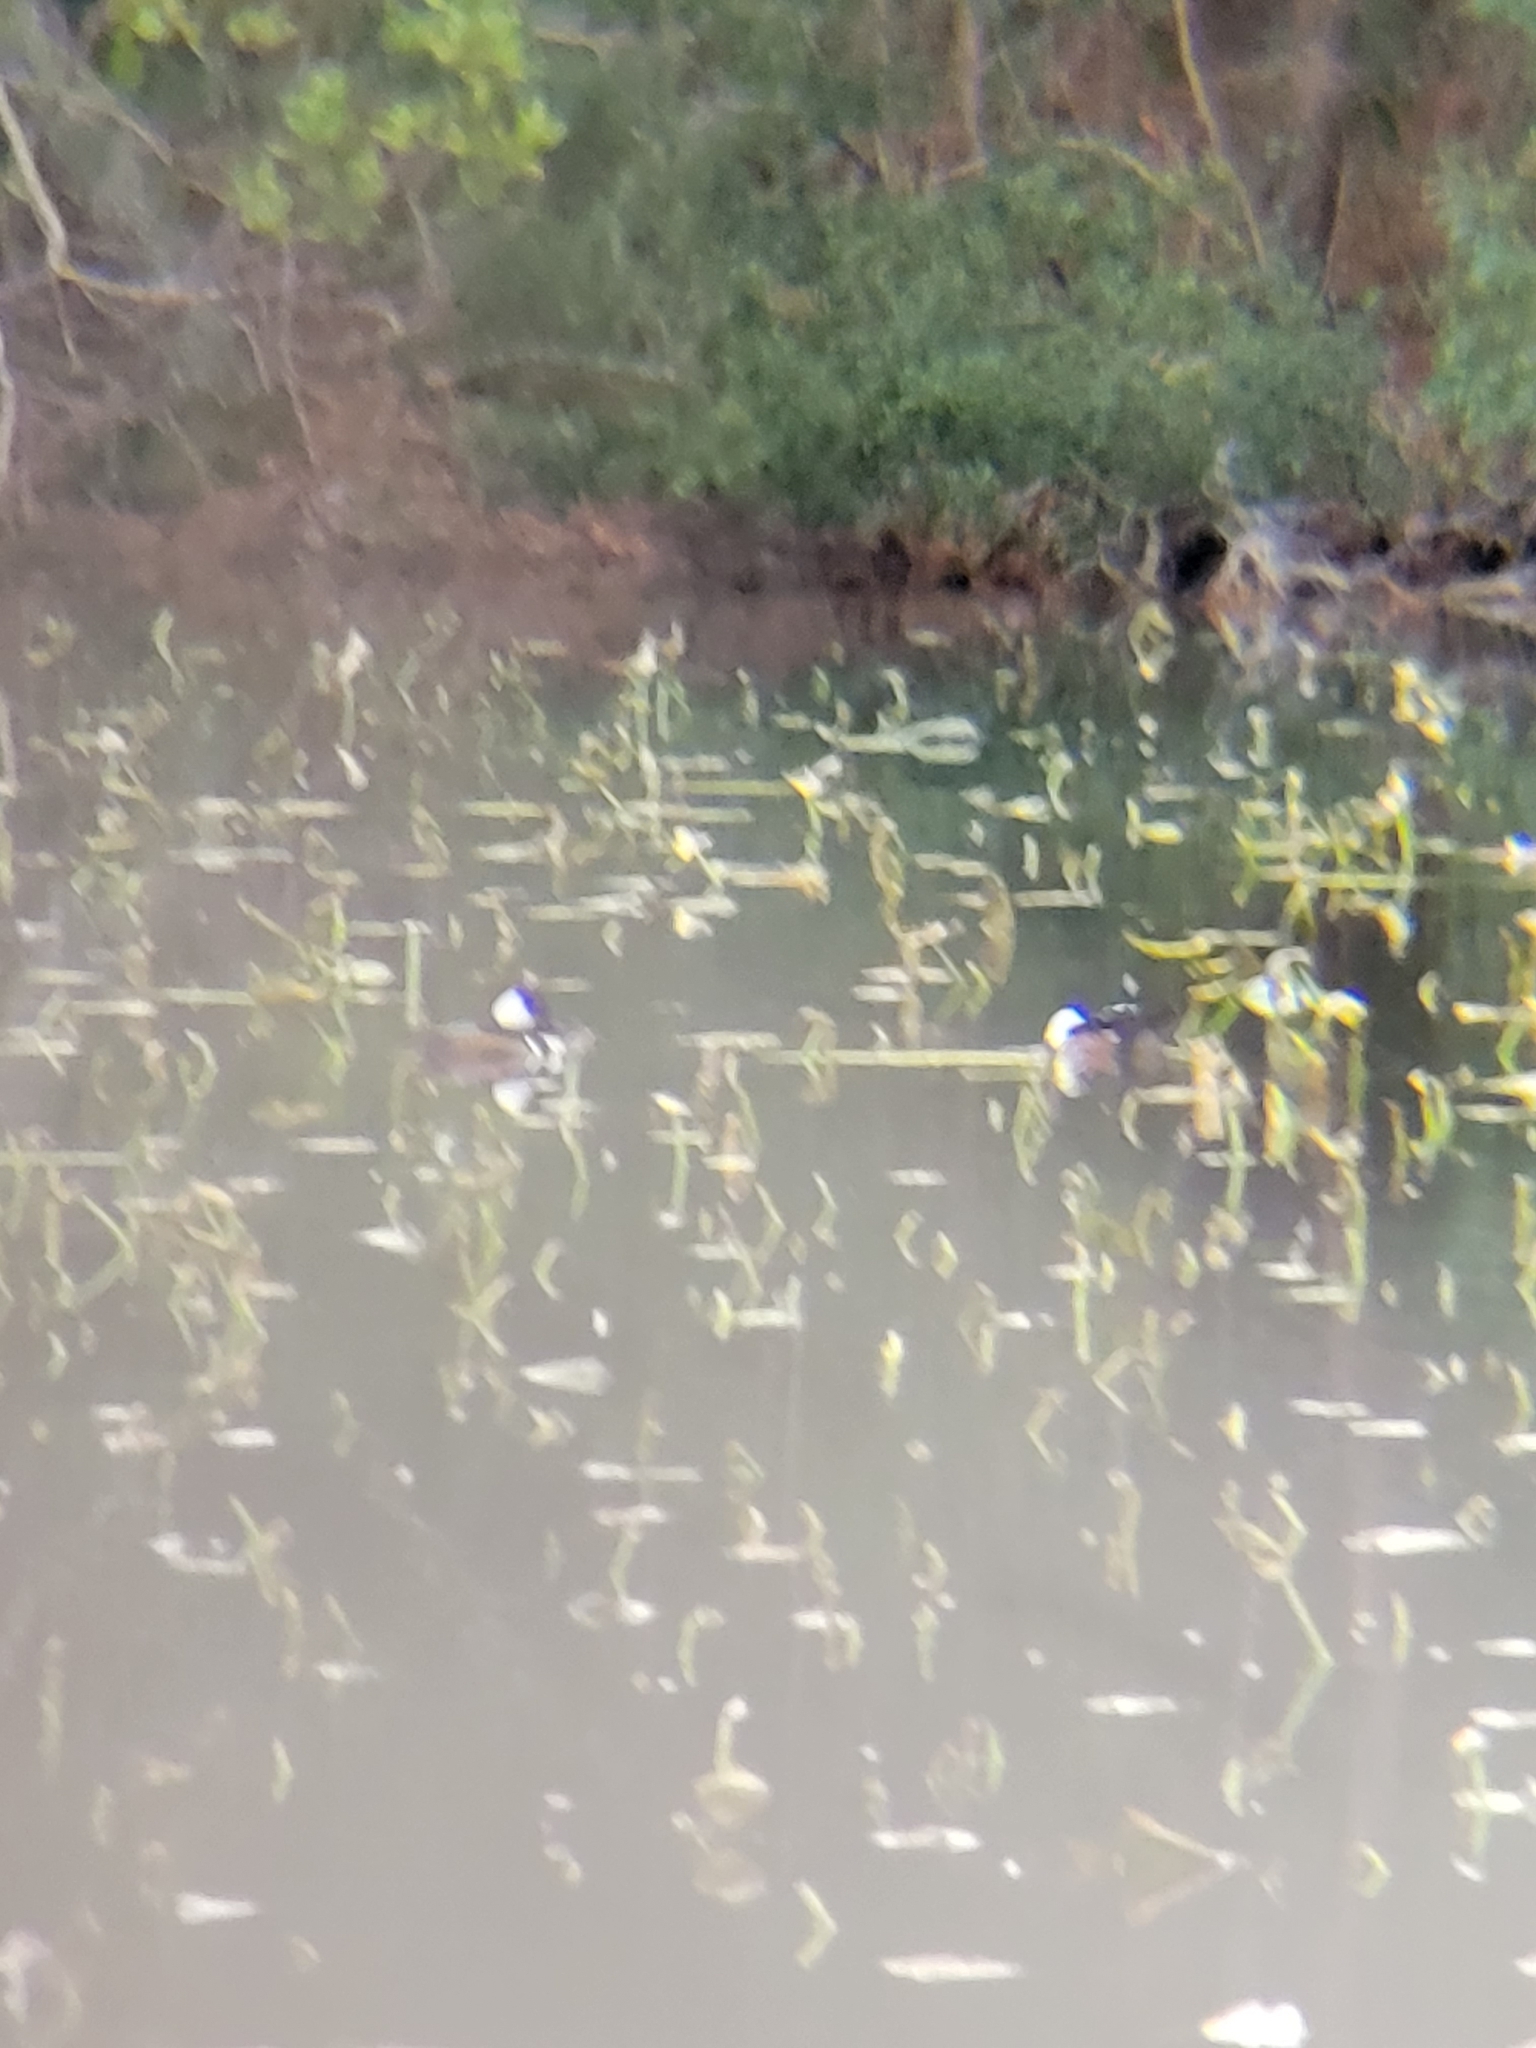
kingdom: Animalia
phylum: Chordata
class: Aves
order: Anseriformes
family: Anatidae
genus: Lophodytes
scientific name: Lophodytes cucullatus
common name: Hooded merganser
